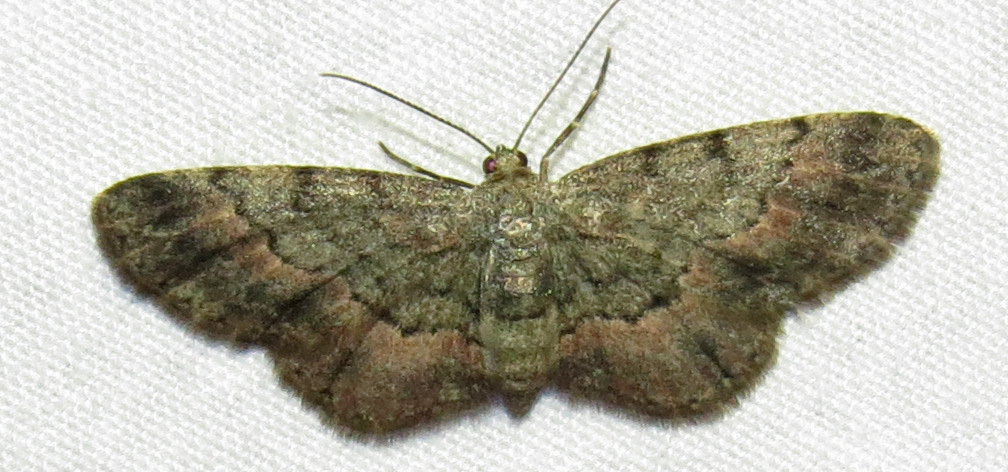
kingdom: Animalia
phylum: Arthropoda
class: Insecta
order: Lepidoptera
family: Geometridae
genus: Glenoides
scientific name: Glenoides texanaria
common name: Texas gray
